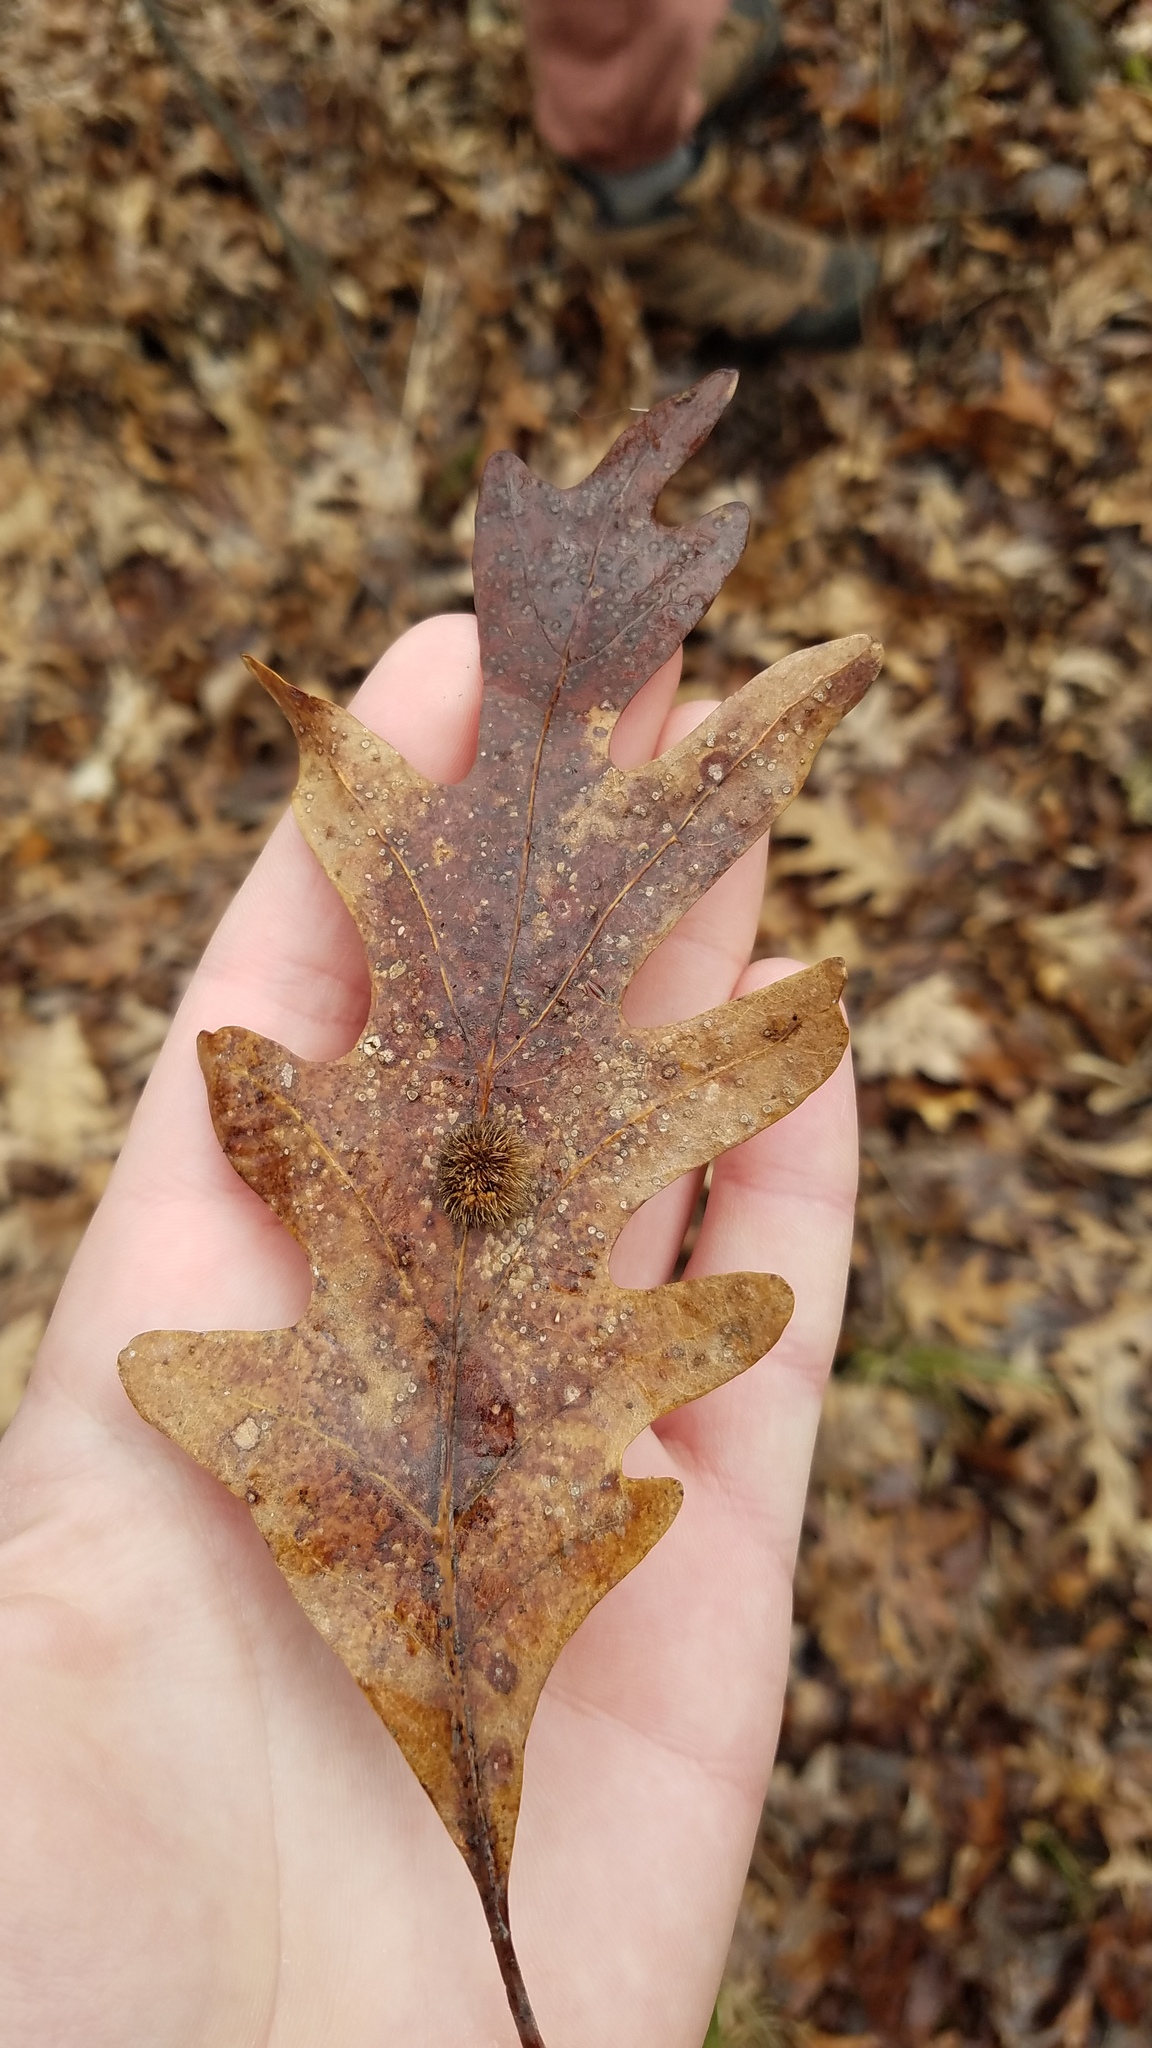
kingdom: Animalia
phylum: Arthropoda
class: Insecta
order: Hymenoptera
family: Cynipidae
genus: Acraspis
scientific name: Acraspis erinacei
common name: Hedgehog gall wasp
